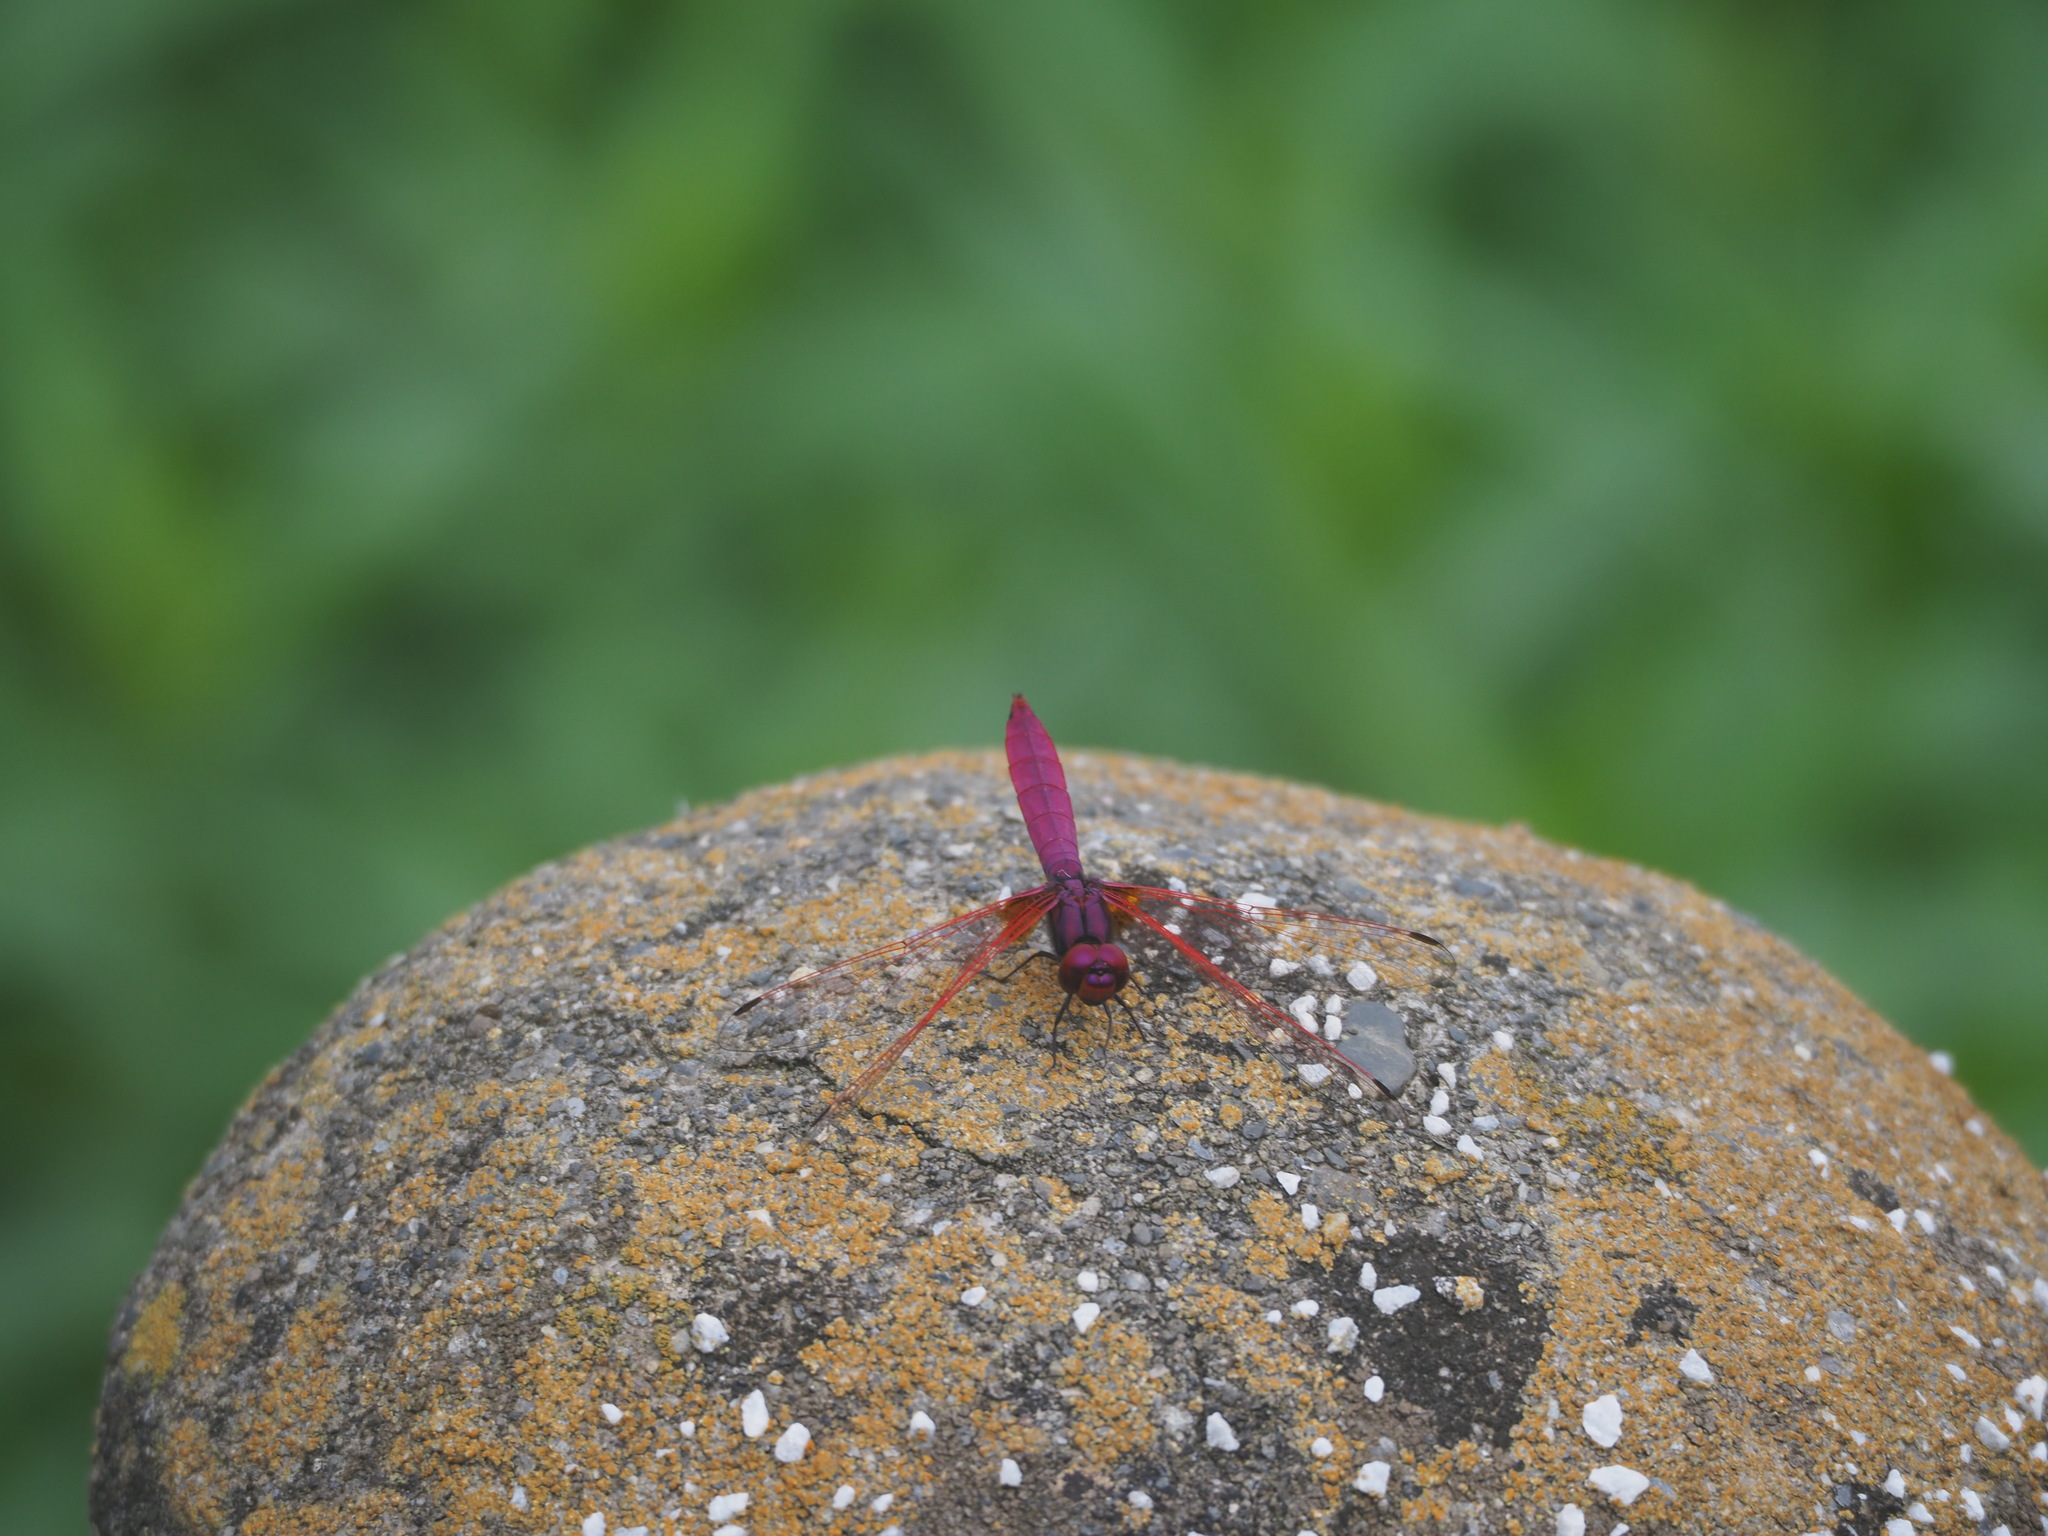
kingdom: Animalia
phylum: Arthropoda
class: Insecta
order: Odonata
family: Libellulidae
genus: Trithemis
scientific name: Trithemis aurora
